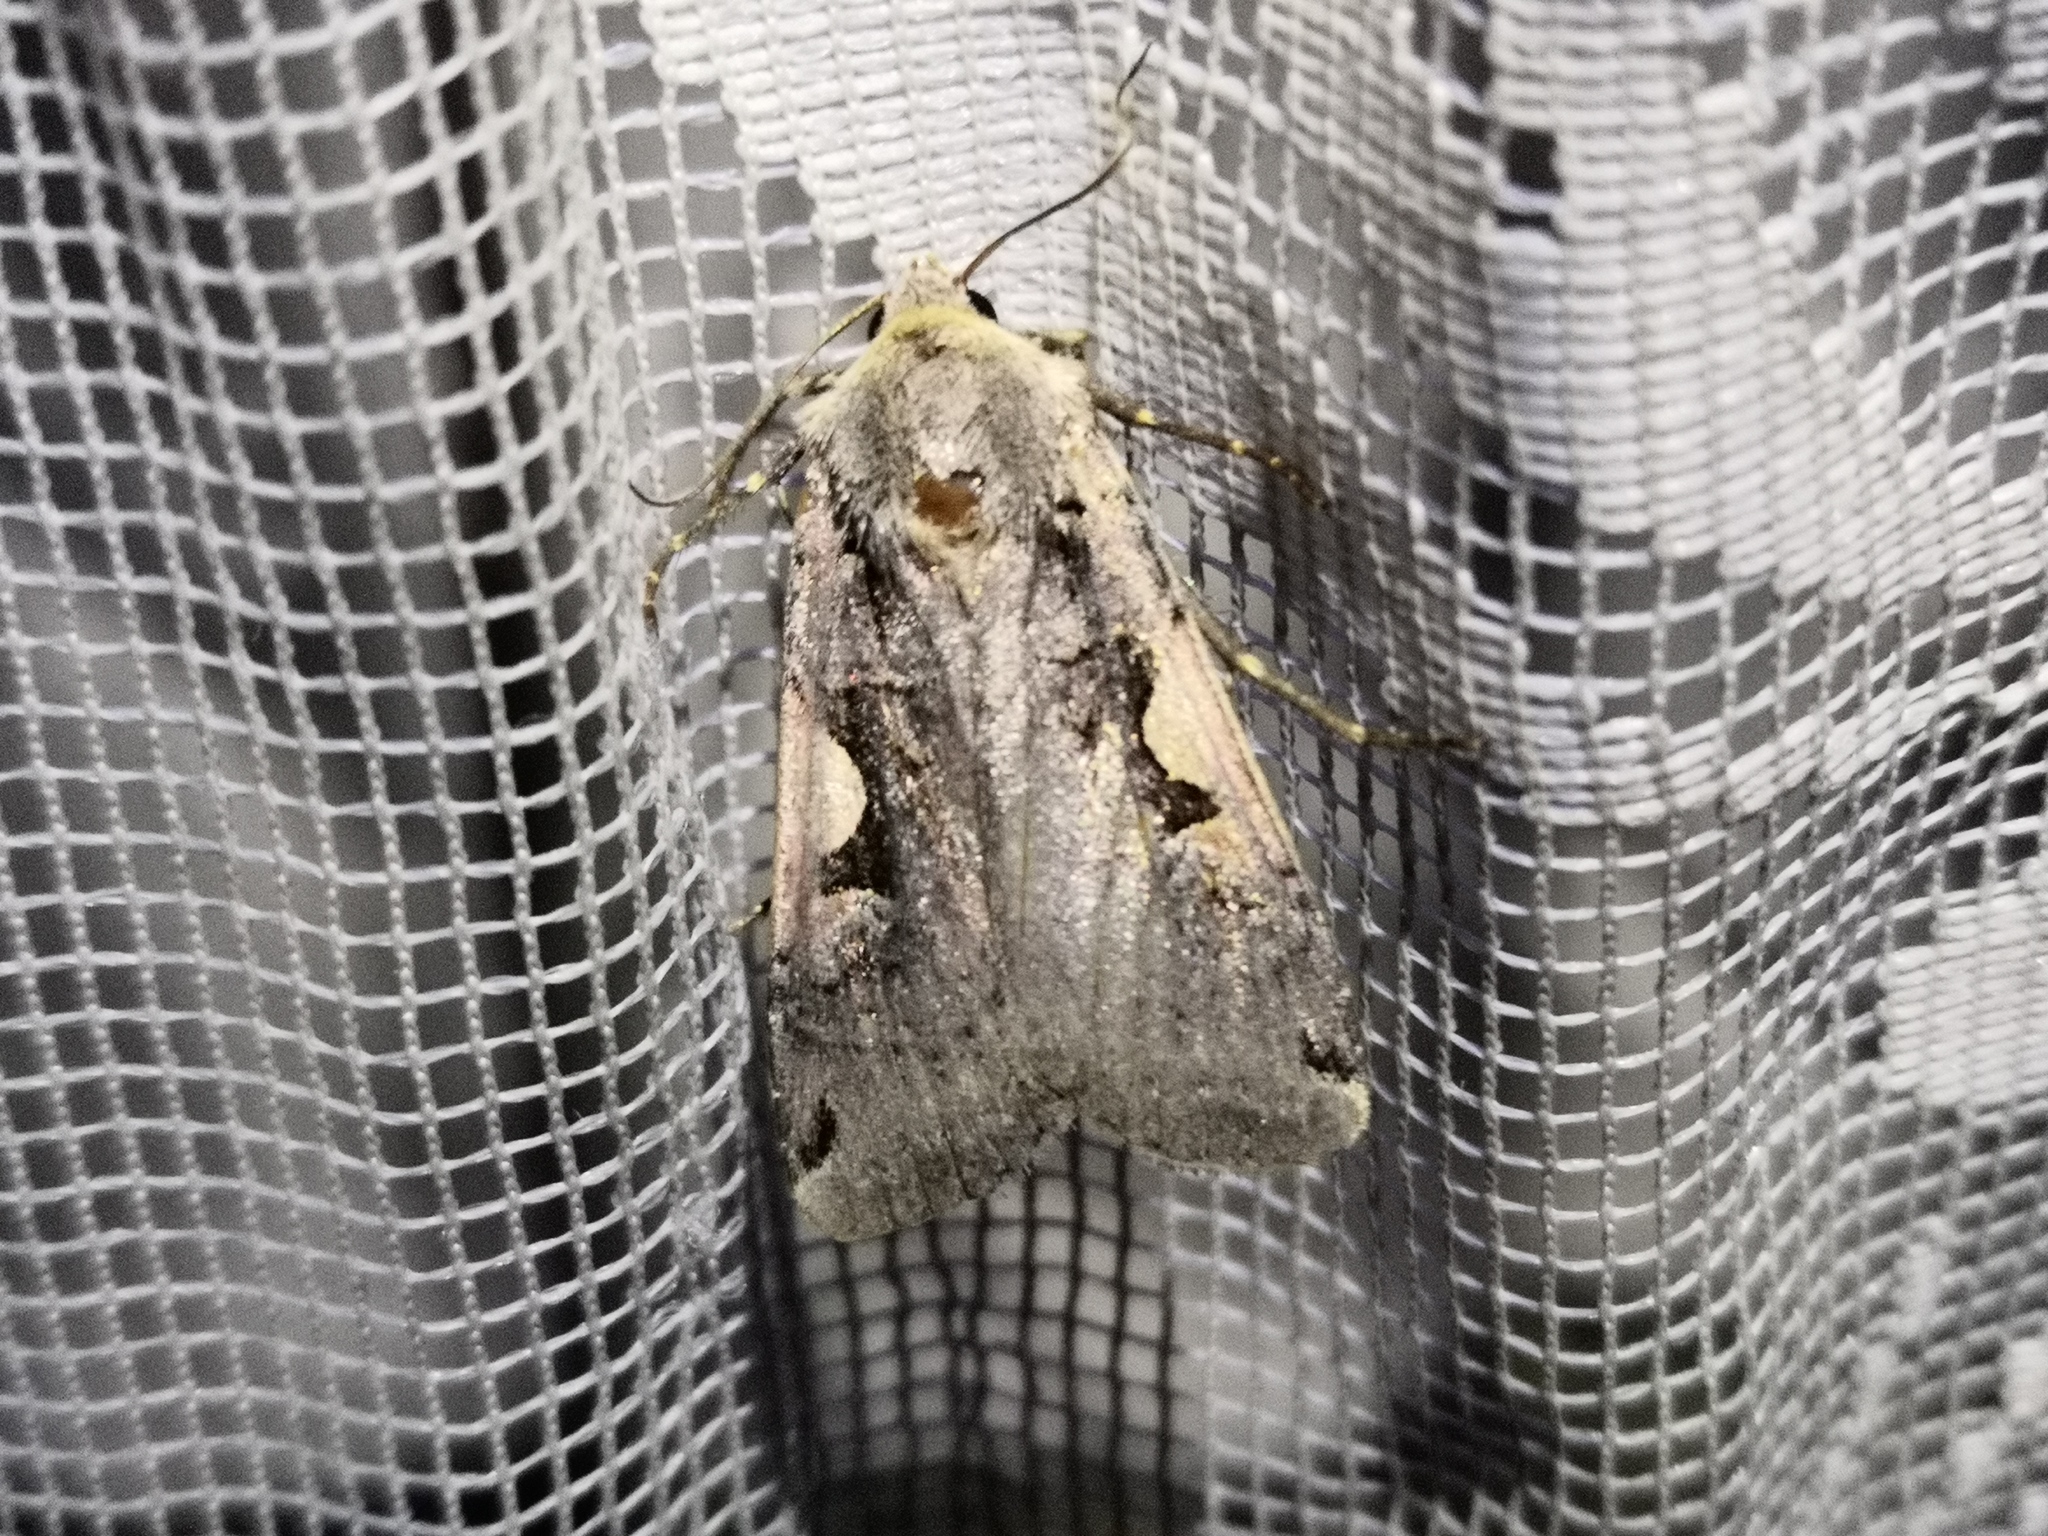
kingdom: Animalia
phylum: Arthropoda
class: Insecta
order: Lepidoptera
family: Noctuidae
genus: Xestia
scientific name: Xestia c-nigrum
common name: Setaceous hebrew character
